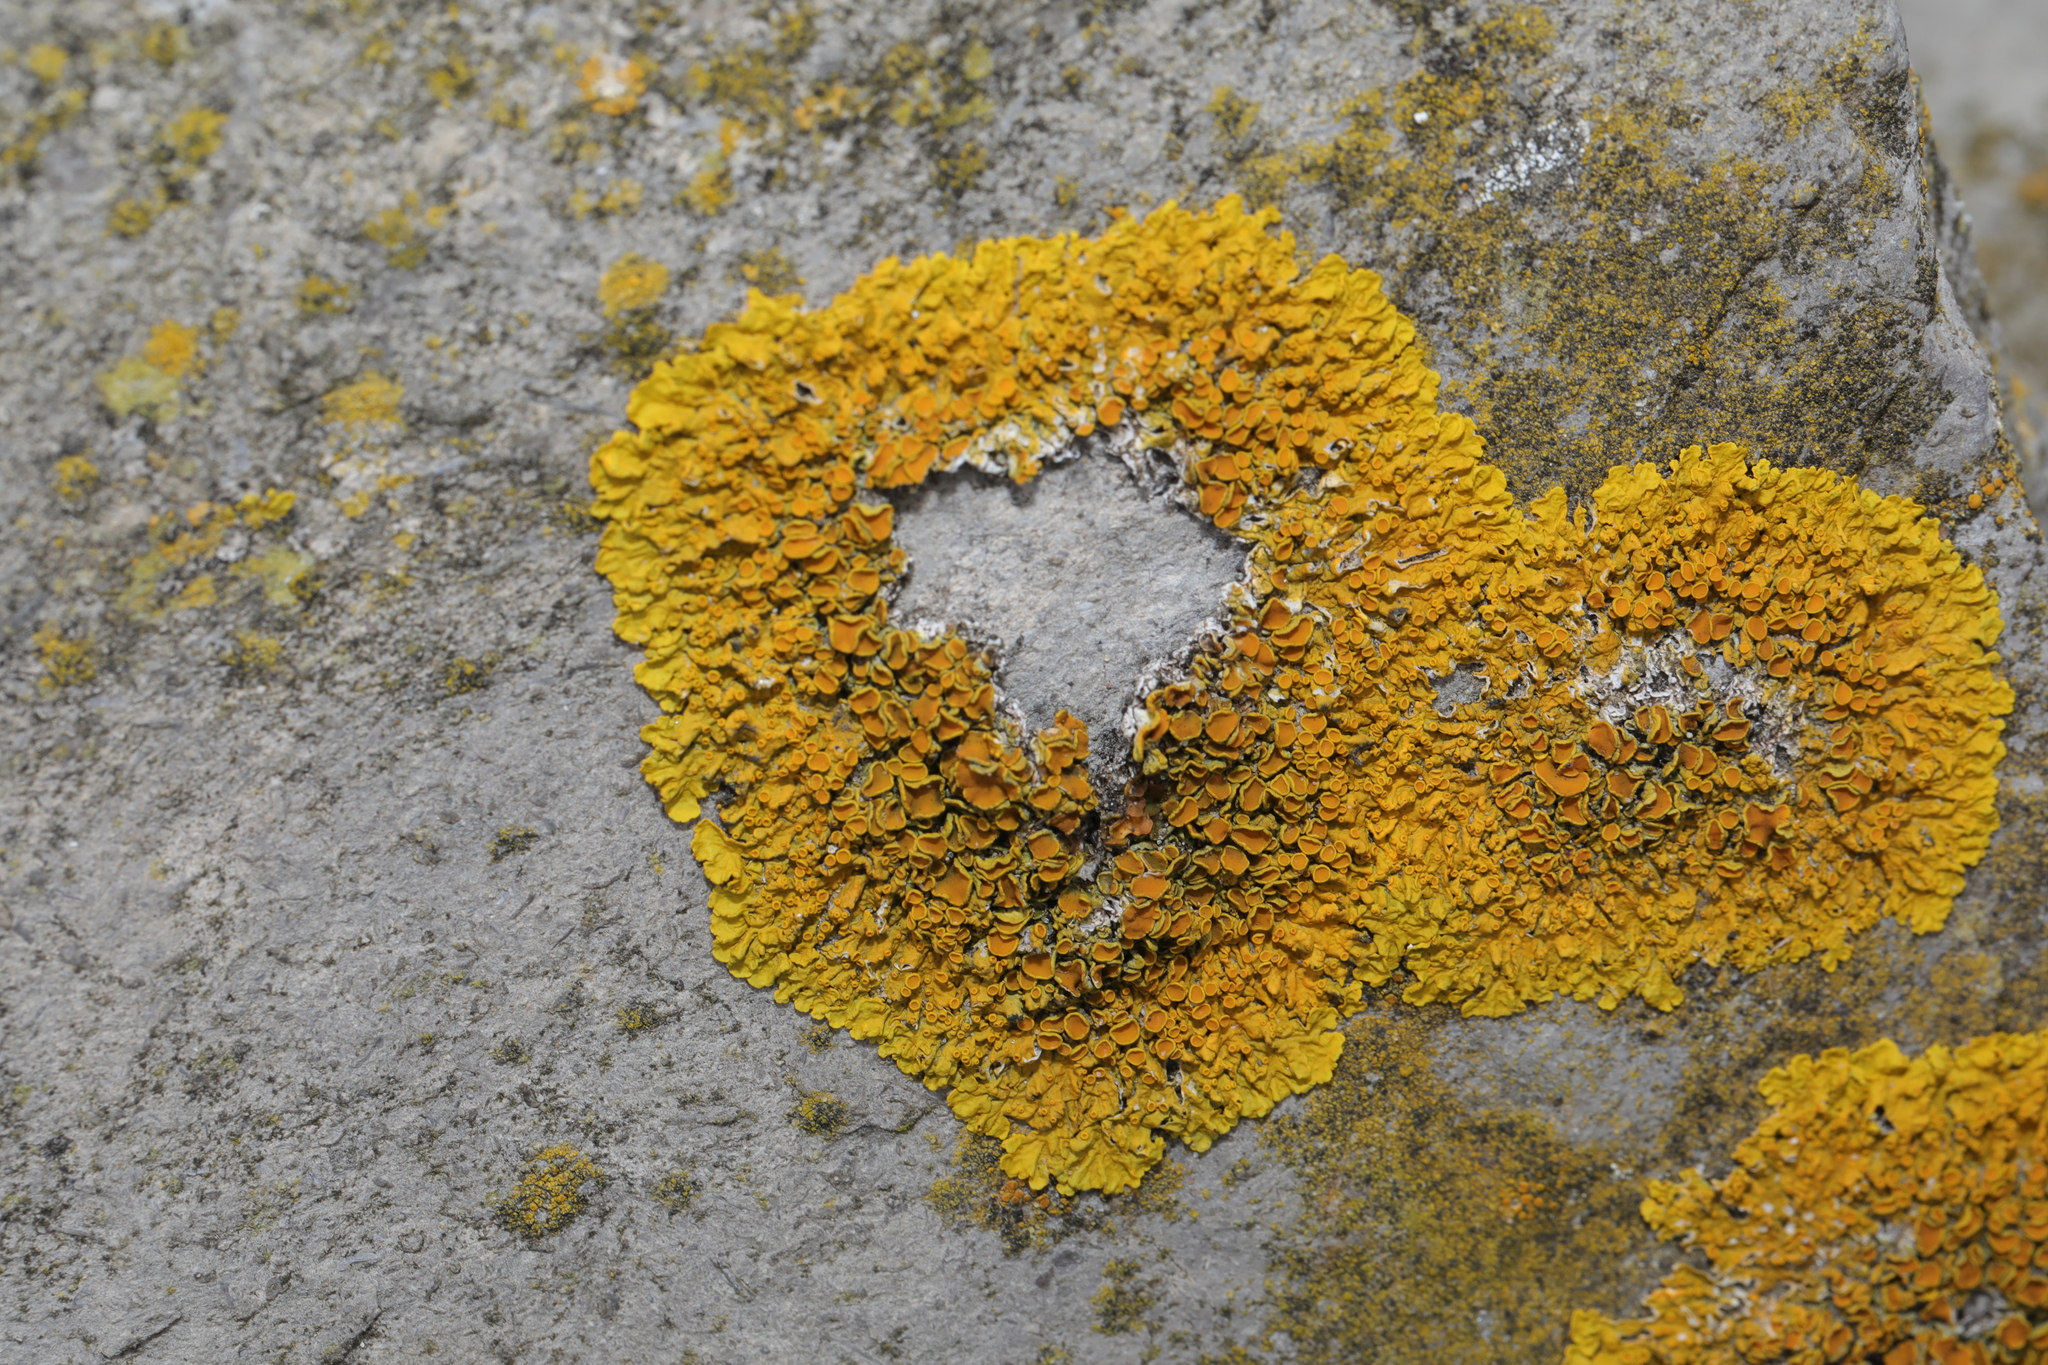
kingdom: Fungi
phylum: Ascomycota
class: Lecanoromycetes
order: Teloschistales
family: Teloschistaceae
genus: Xanthoria
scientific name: Xanthoria parietina
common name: Common orange lichen
